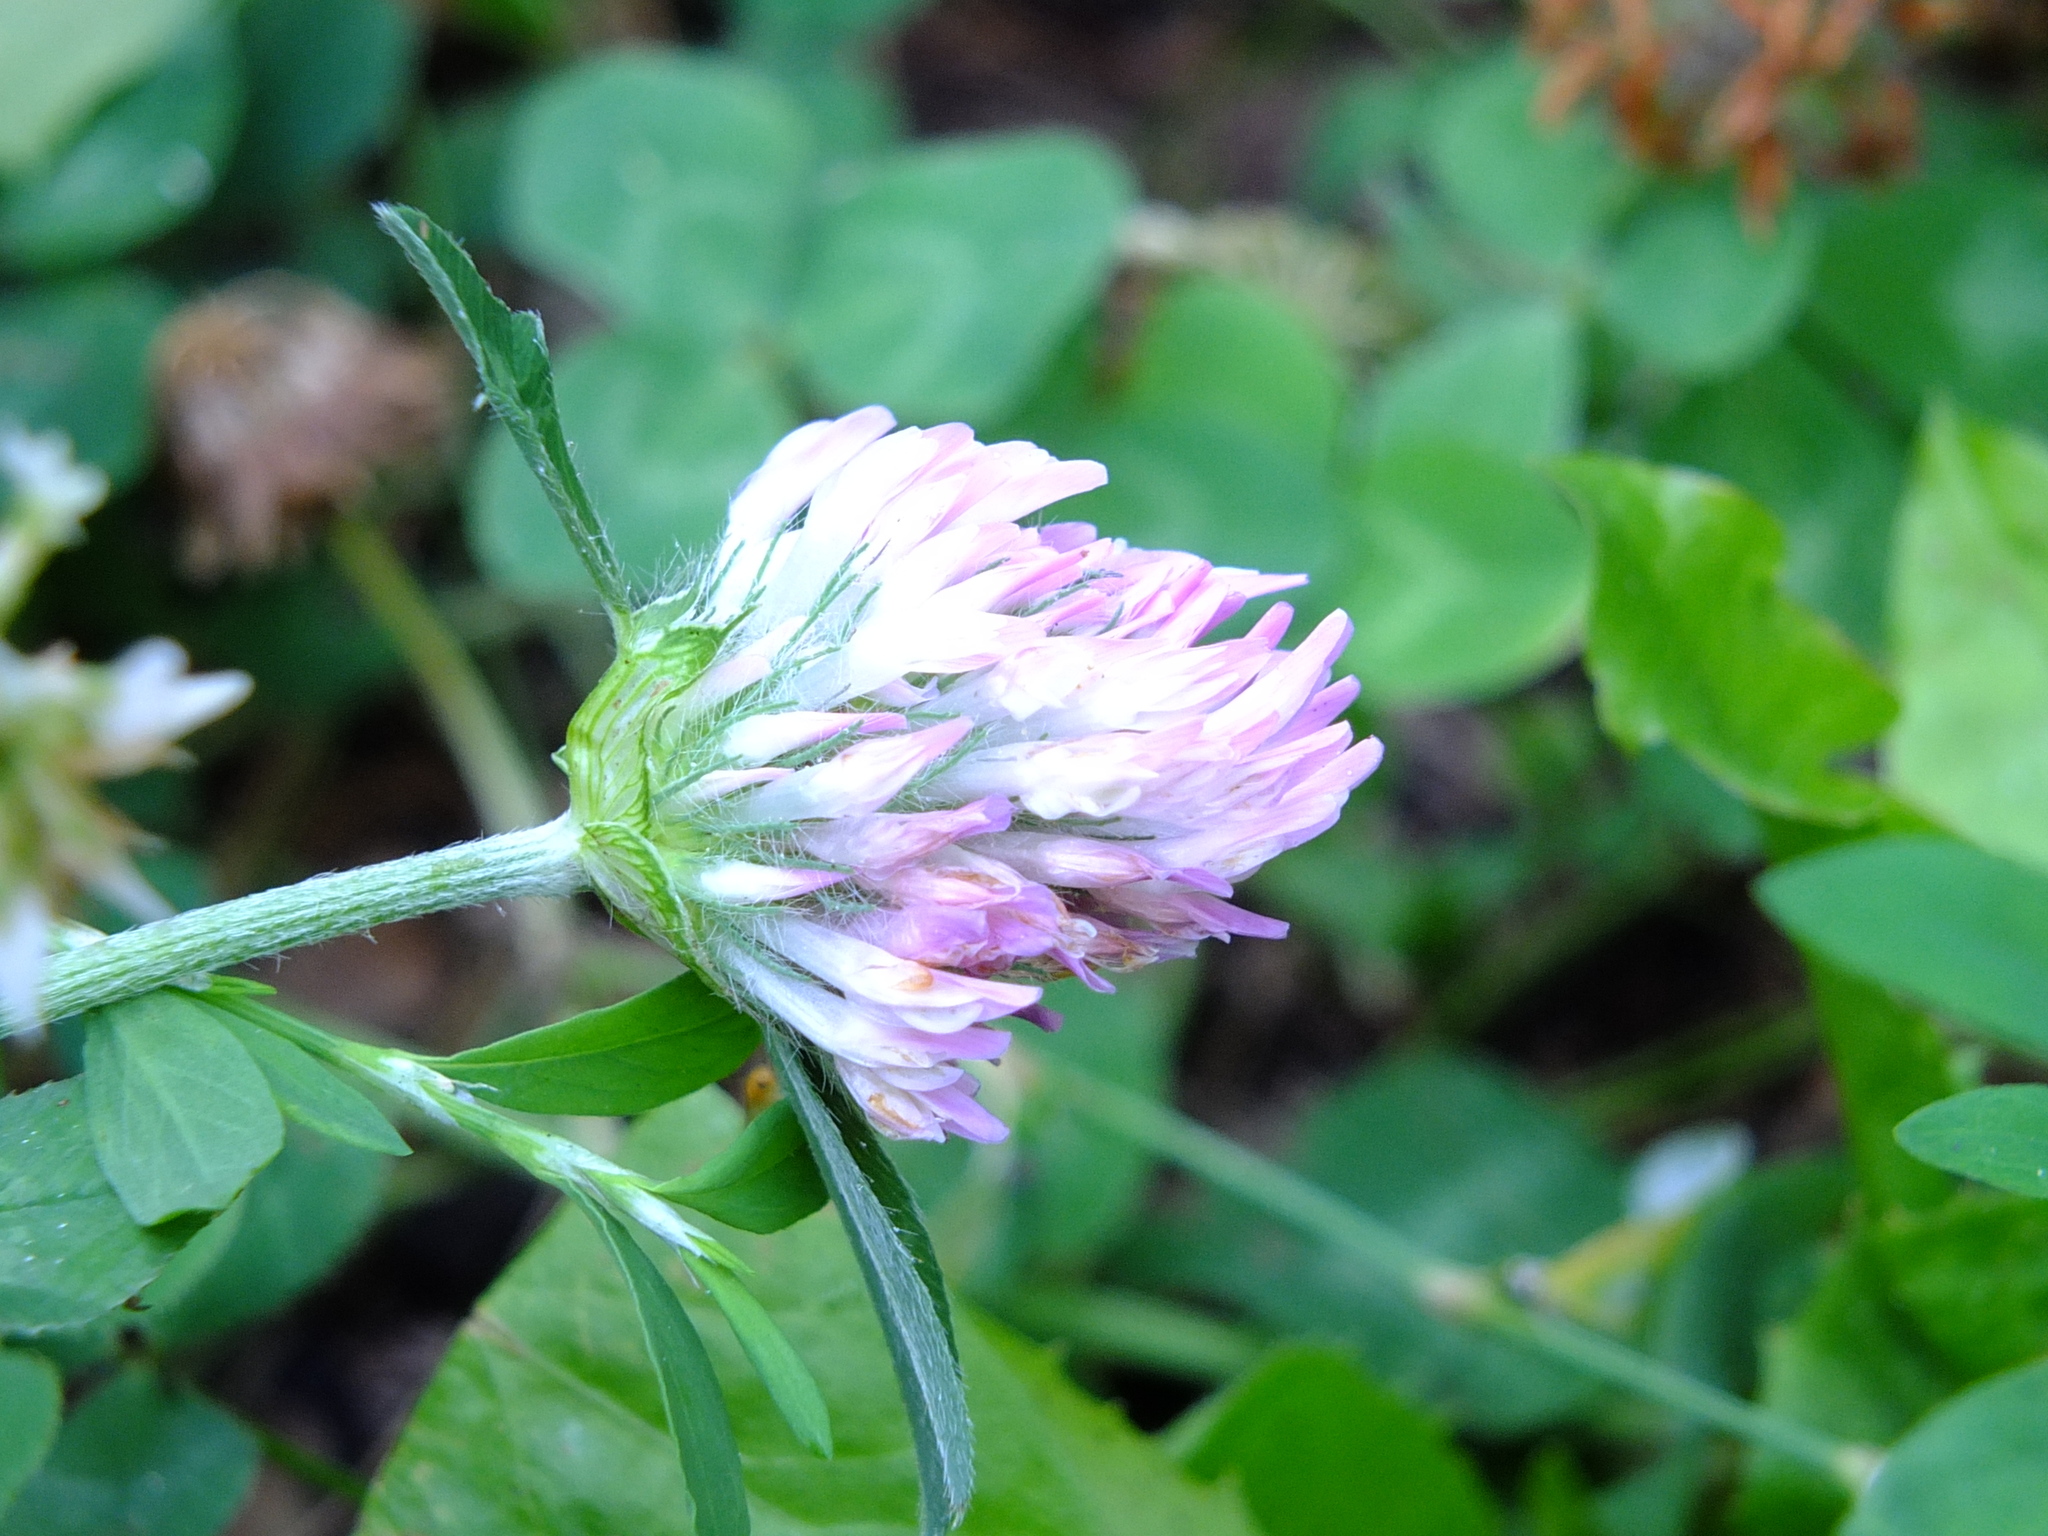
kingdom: Plantae
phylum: Tracheophyta
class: Magnoliopsida
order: Fabales
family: Fabaceae
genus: Trifolium
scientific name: Trifolium pratense
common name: Red clover
